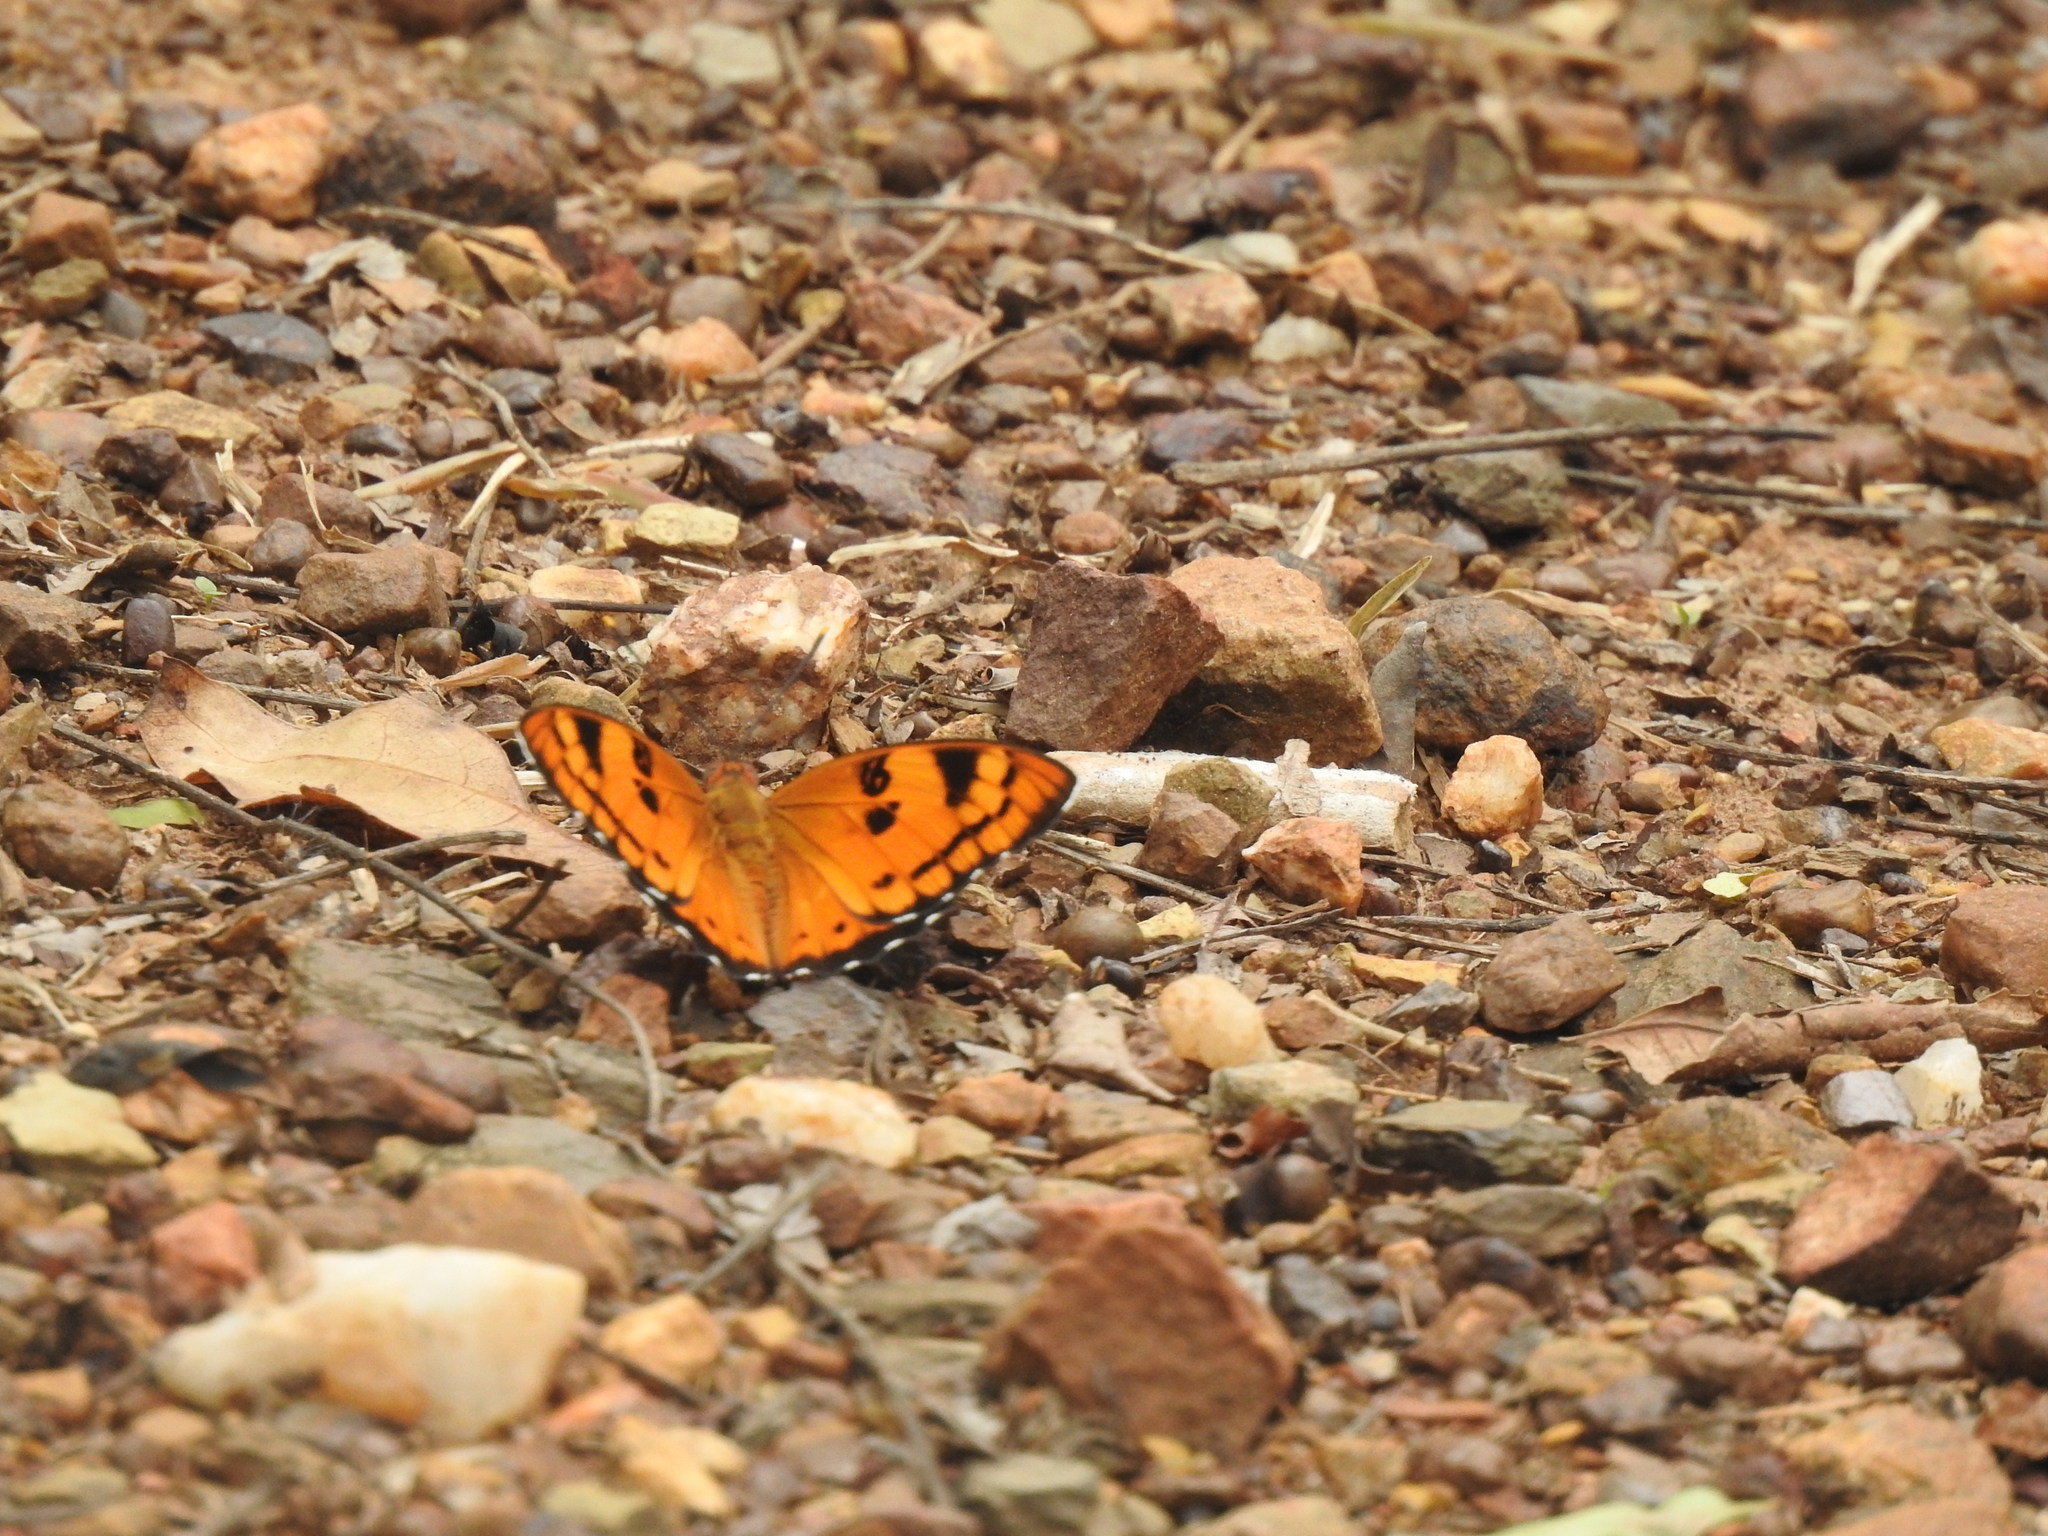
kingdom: Animalia
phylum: Arthropoda
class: Insecta
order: Lepidoptera
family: Nymphalidae
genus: Euthalia
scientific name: Euthalia nais
